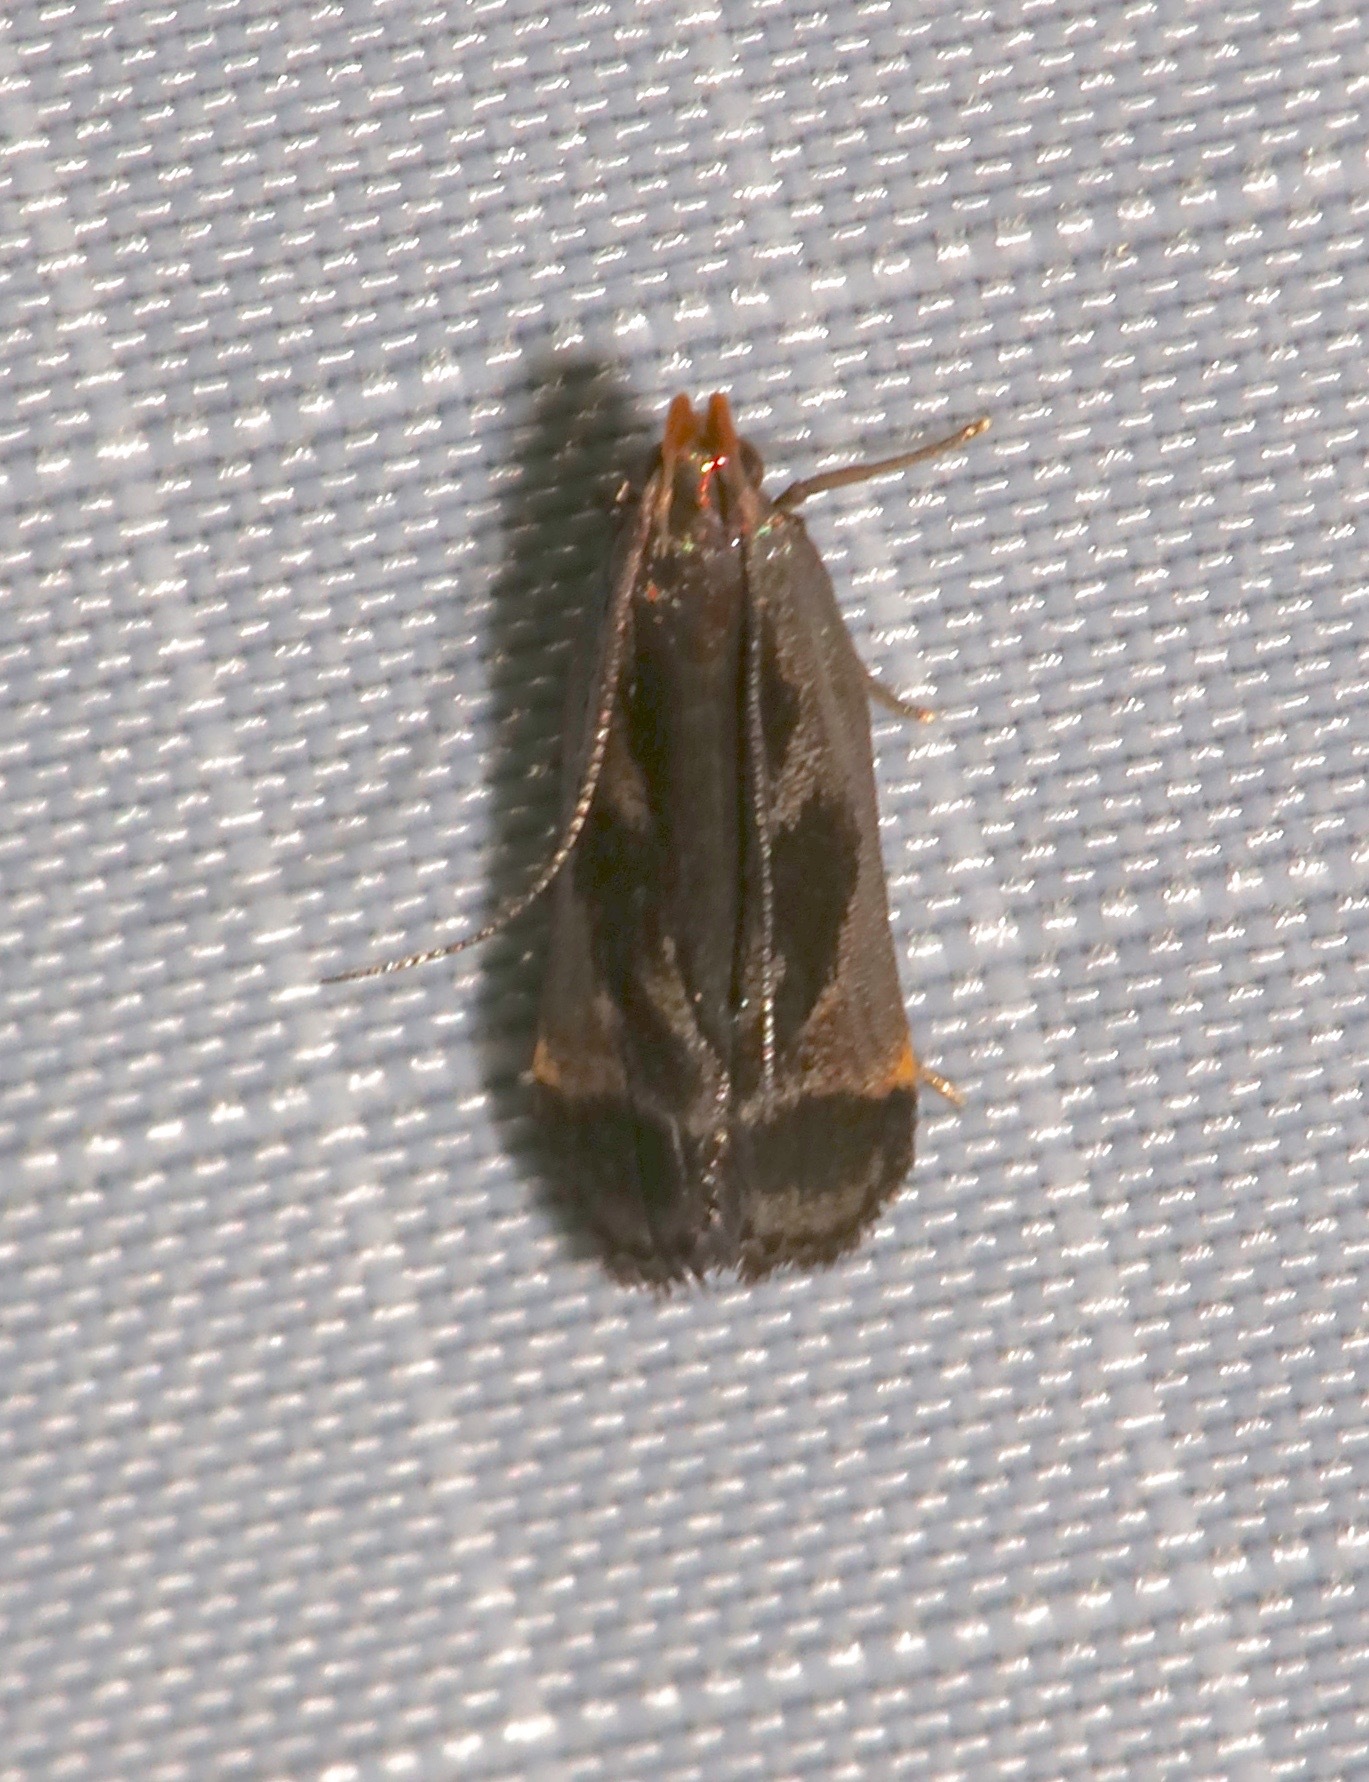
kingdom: Animalia
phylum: Arthropoda
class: Insecta
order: Lepidoptera
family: Gelechiidae
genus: Dichomeris
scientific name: Dichomeris ochripalpella
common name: Shining dichomeris moth
